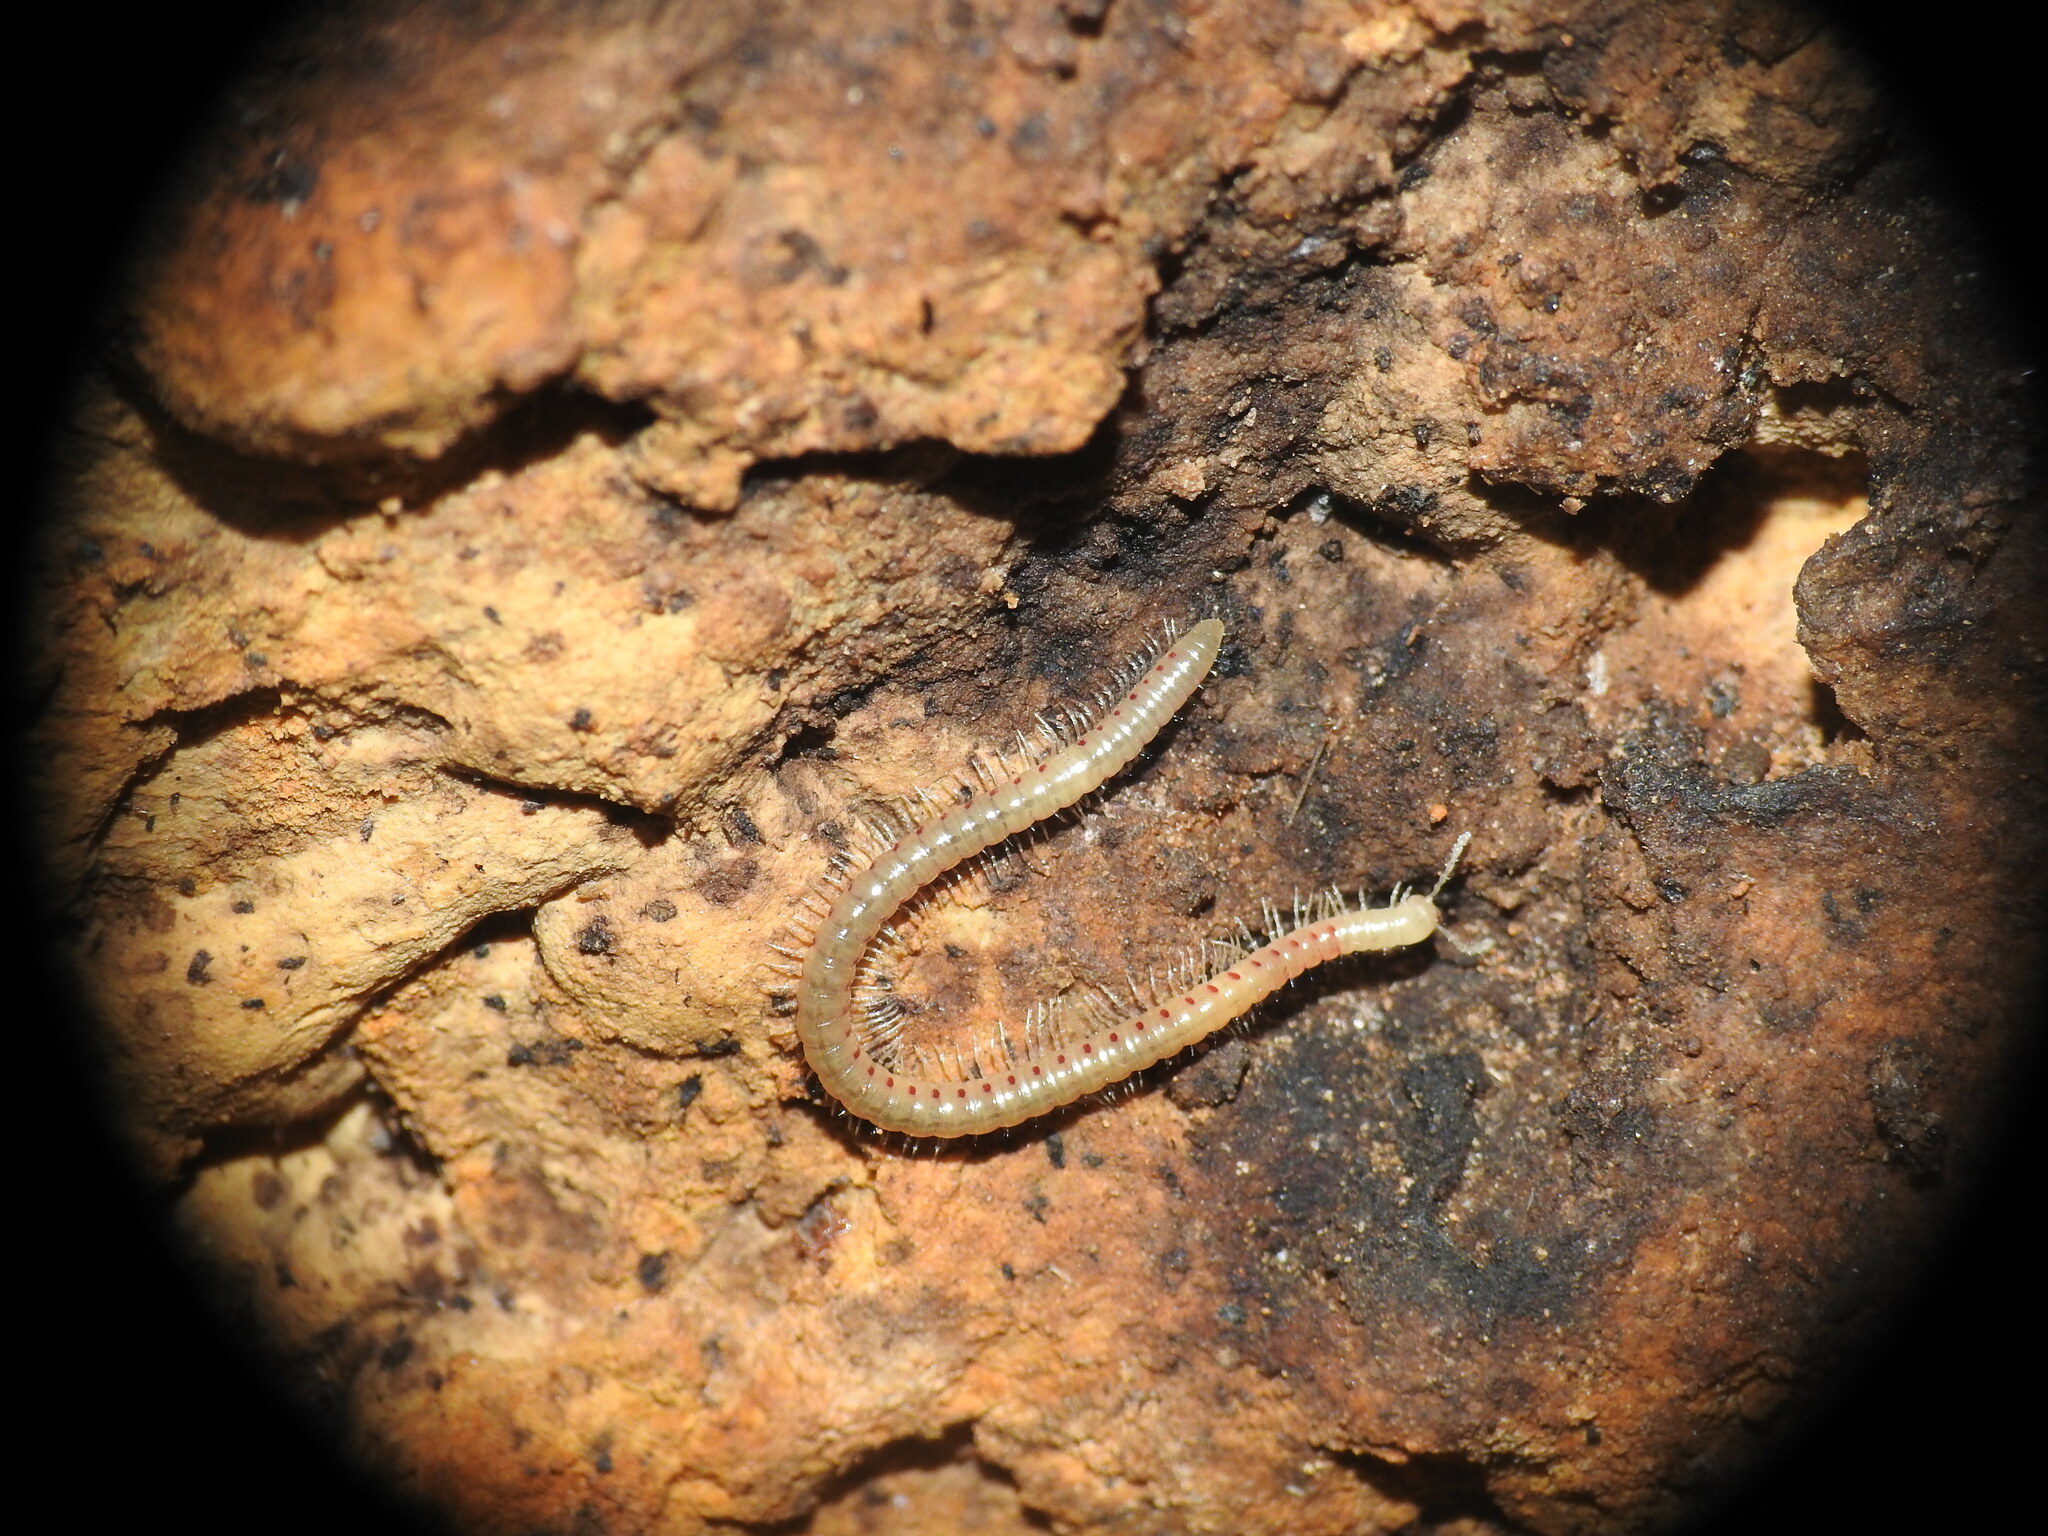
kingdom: Animalia
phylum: Arthropoda
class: Diplopoda
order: Julida
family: Blaniulidae
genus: Blaniulus
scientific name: Blaniulus guttulatus
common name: Spotted snake millipede
